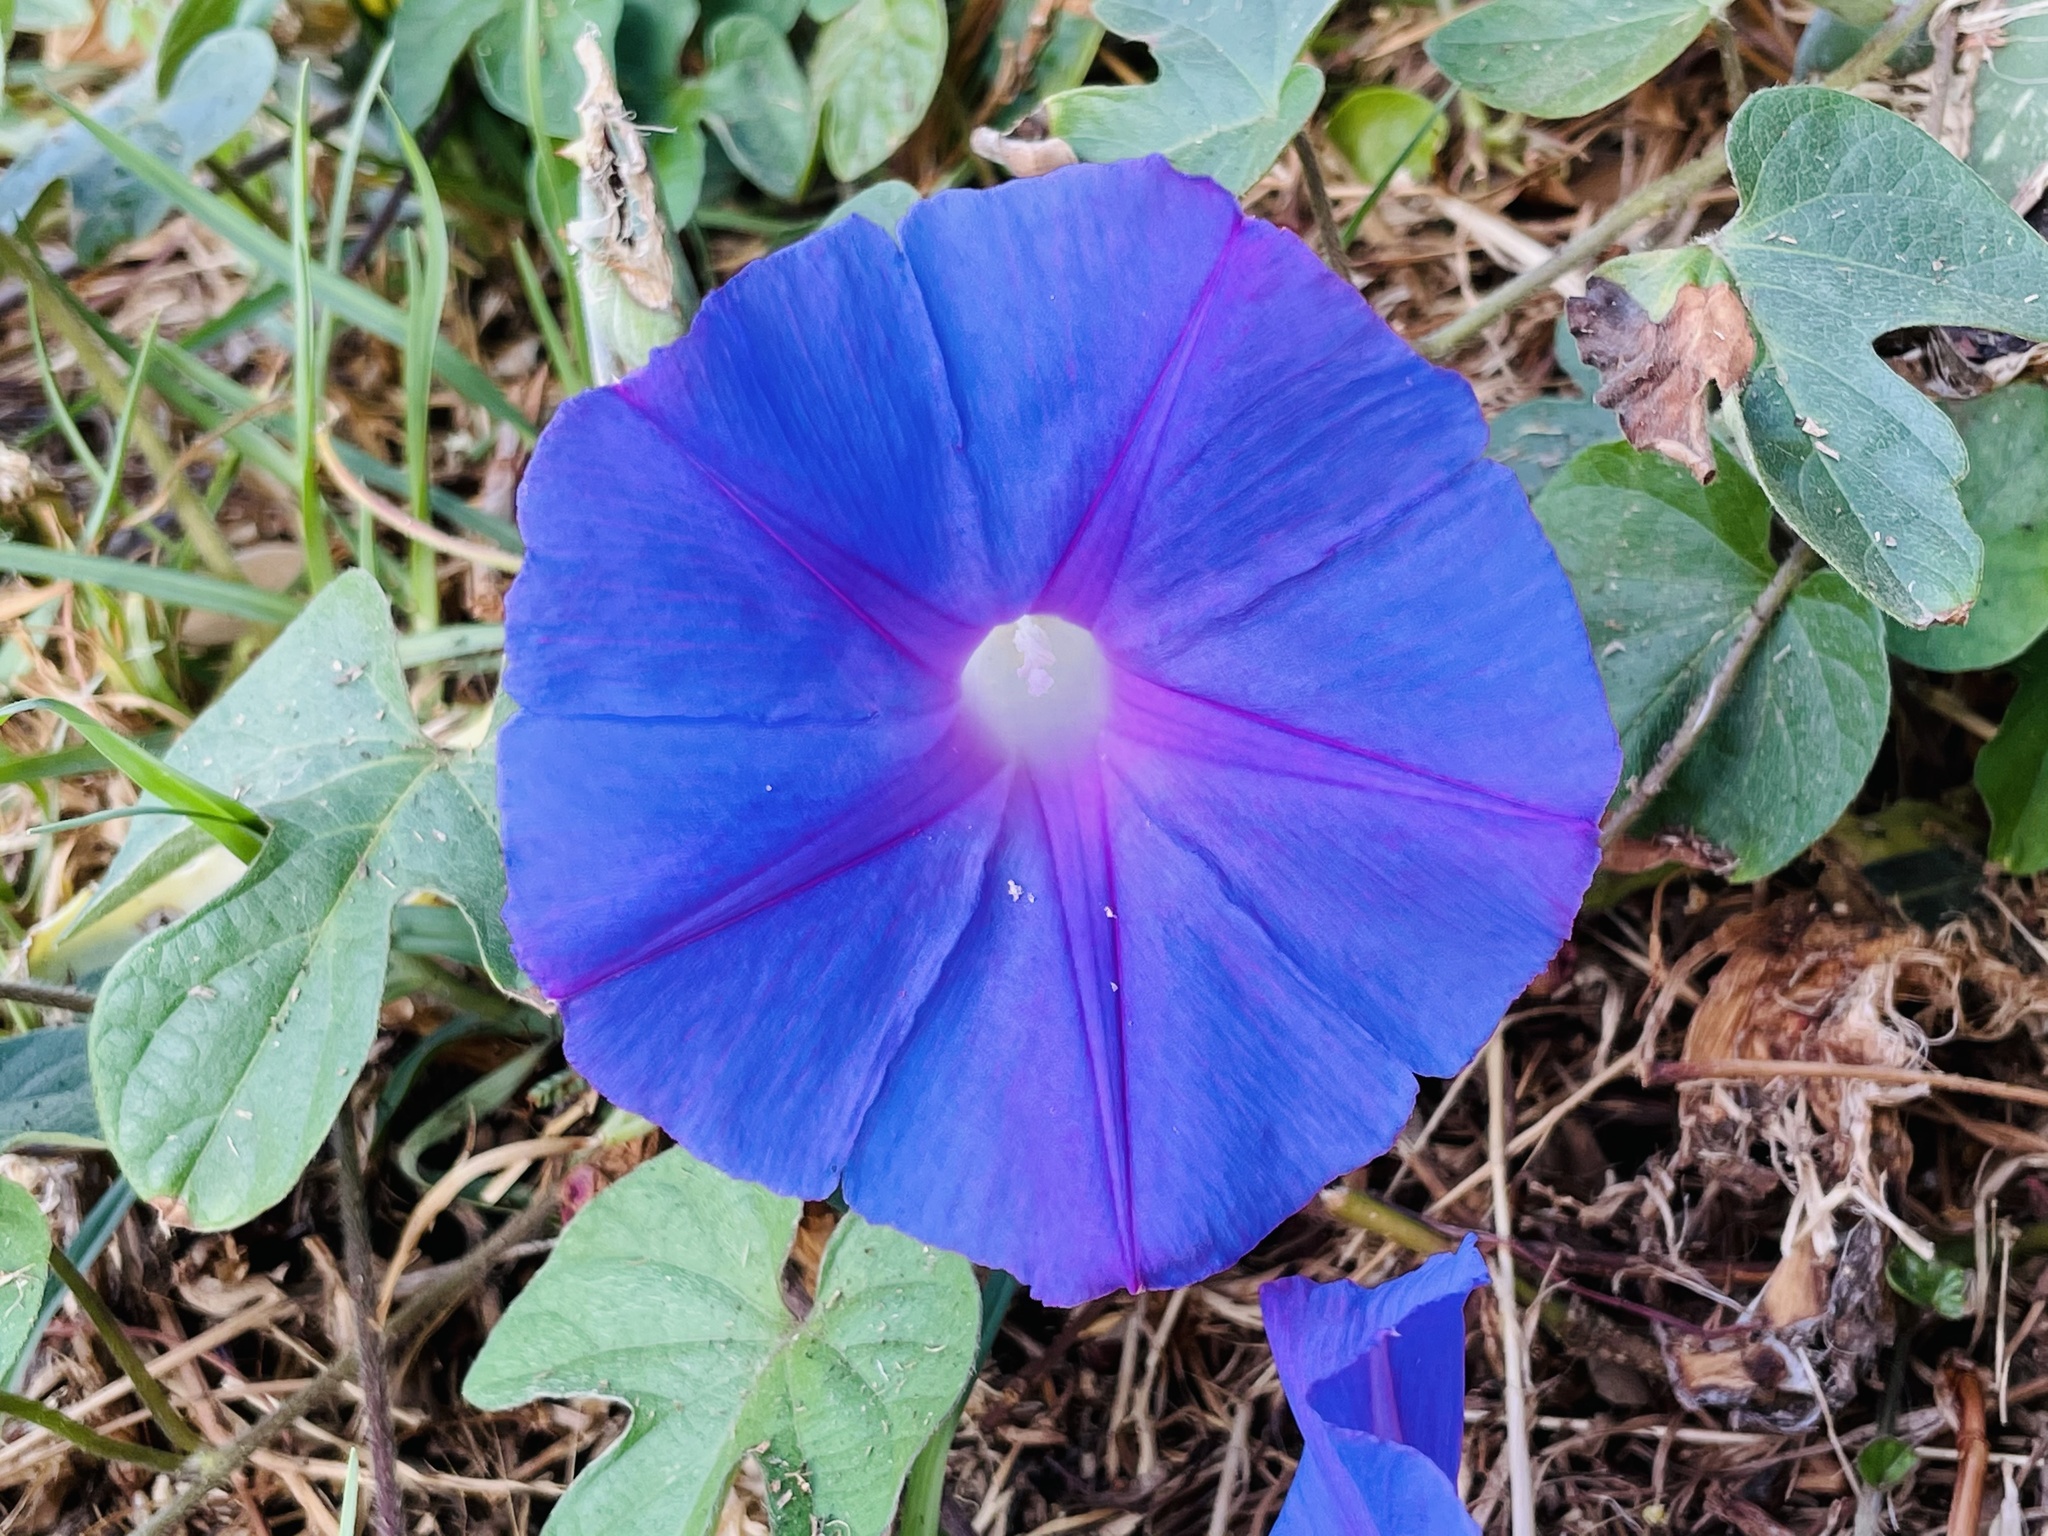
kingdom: Plantae
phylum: Tracheophyta
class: Magnoliopsida
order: Solanales
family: Convolvulaceae
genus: Ipomoea
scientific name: Ipomoea indica
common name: Blue dawnflower
